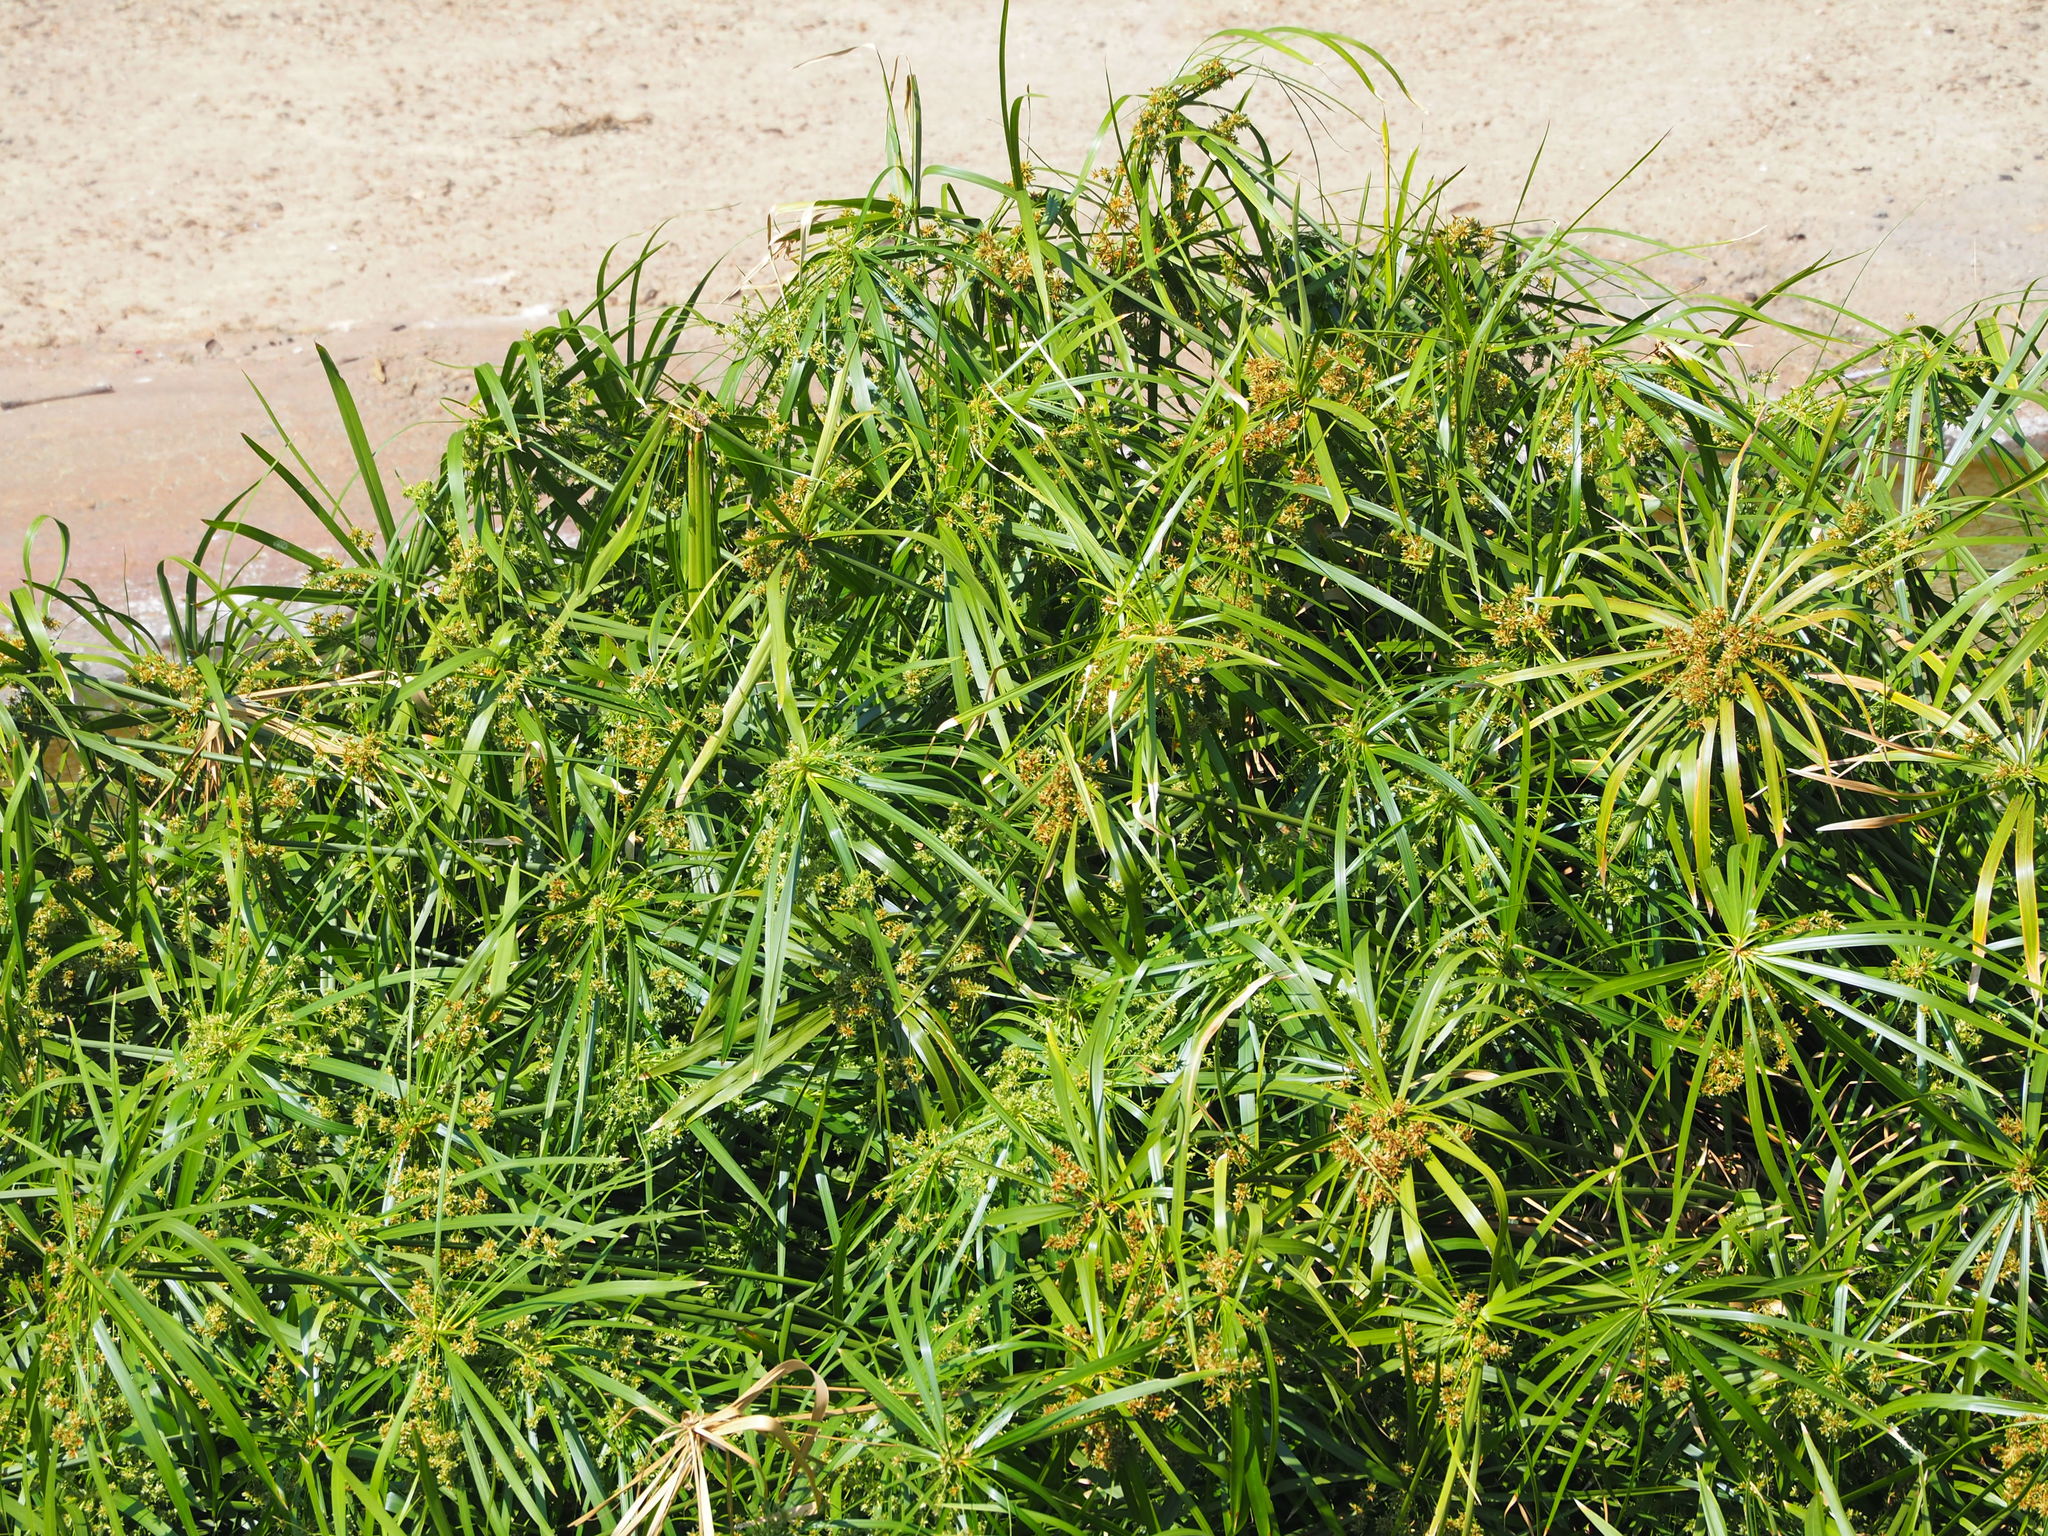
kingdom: Plantae
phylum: Tracheophyta
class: Liliopsida
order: Poales
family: Cyperaceae
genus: Cyperus
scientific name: Cyperus alternifolius
